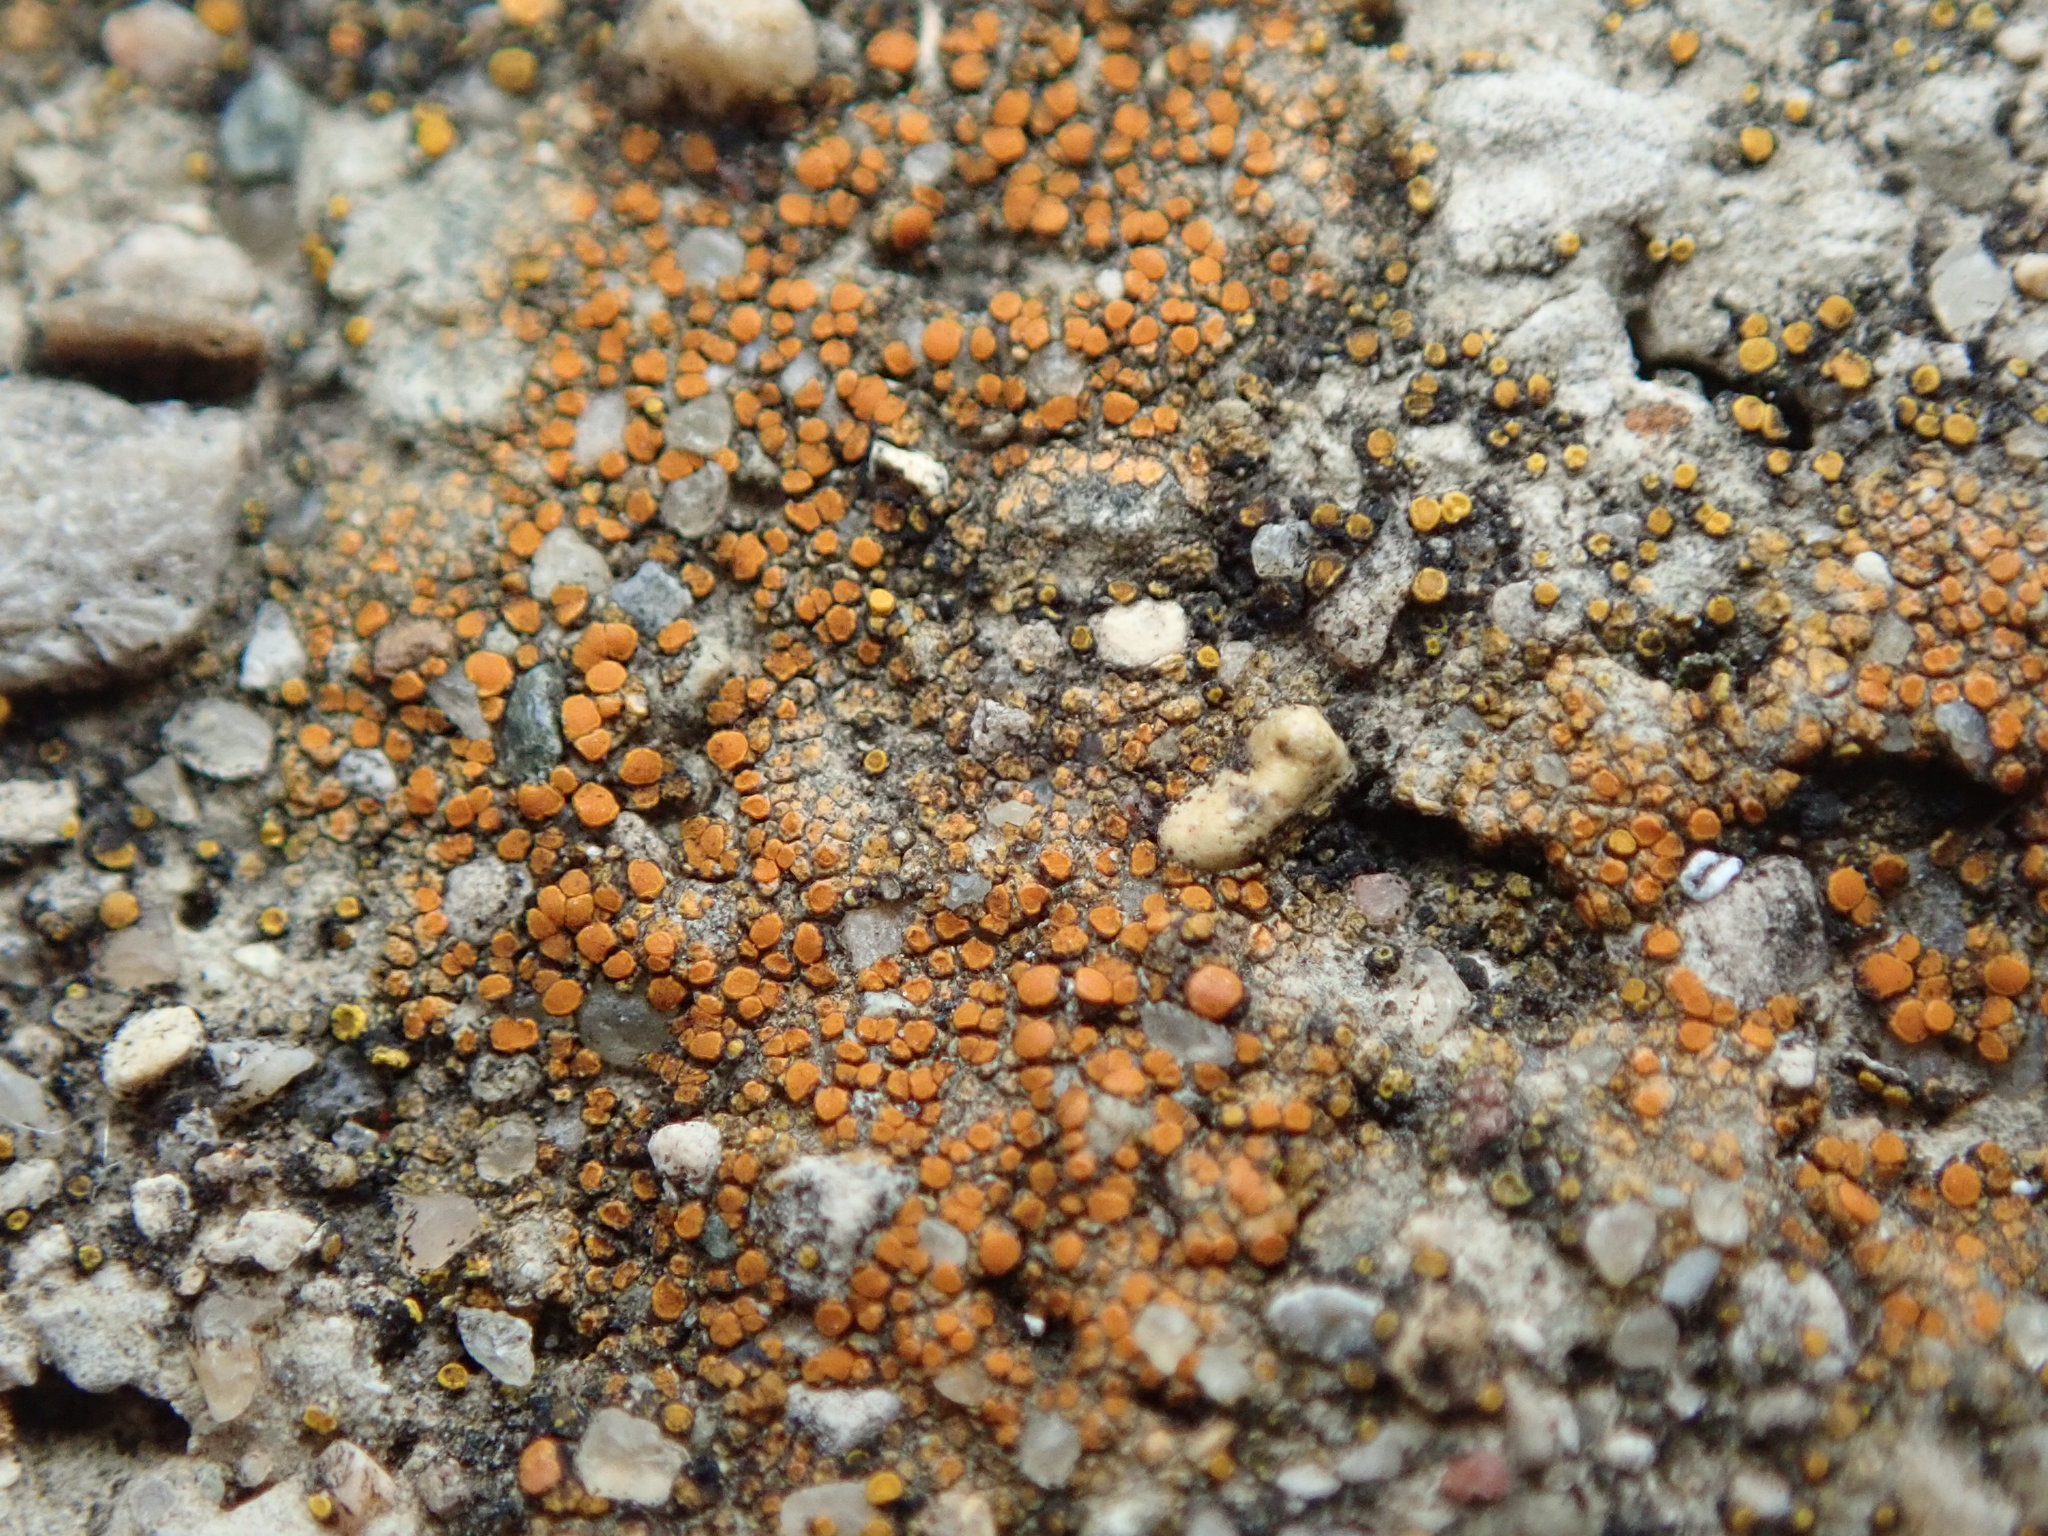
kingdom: Fungi
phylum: Ascomycota
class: Lecanoromycetes
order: Teloschistales
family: Teloschistaceae
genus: Xanthocarpia
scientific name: Xanthocarpia feracissima
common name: Sidewalk firedot
